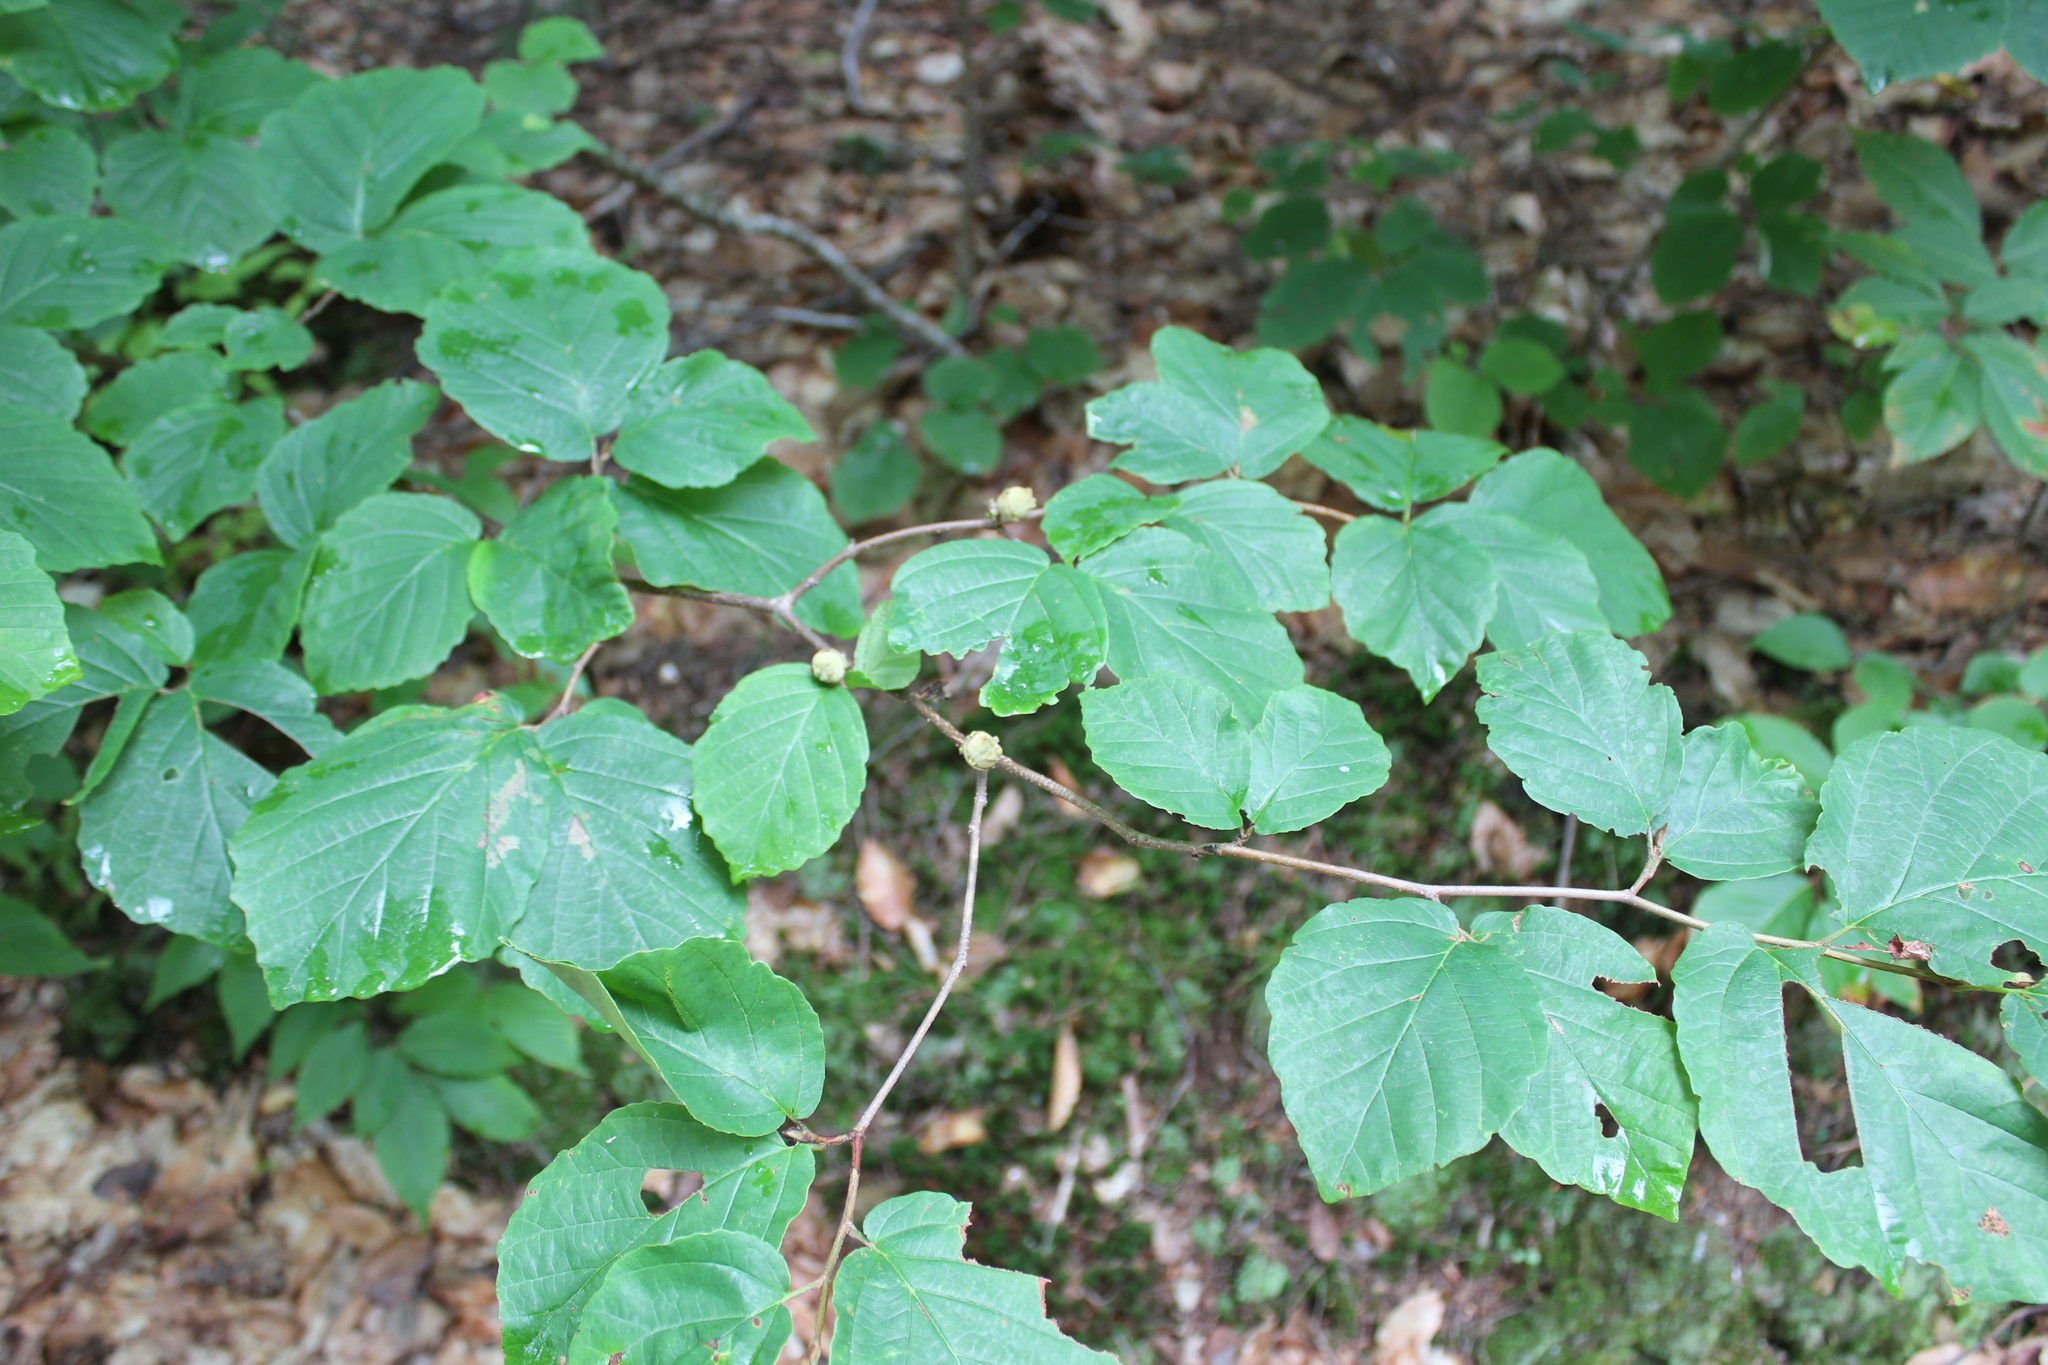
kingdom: Plantae
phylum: Tracheophyta
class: Magnoliopsida
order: Saxifragales
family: Hamamelidaceae
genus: Hamamelis
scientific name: Hamamelis virginiana
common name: Witch-hazel
